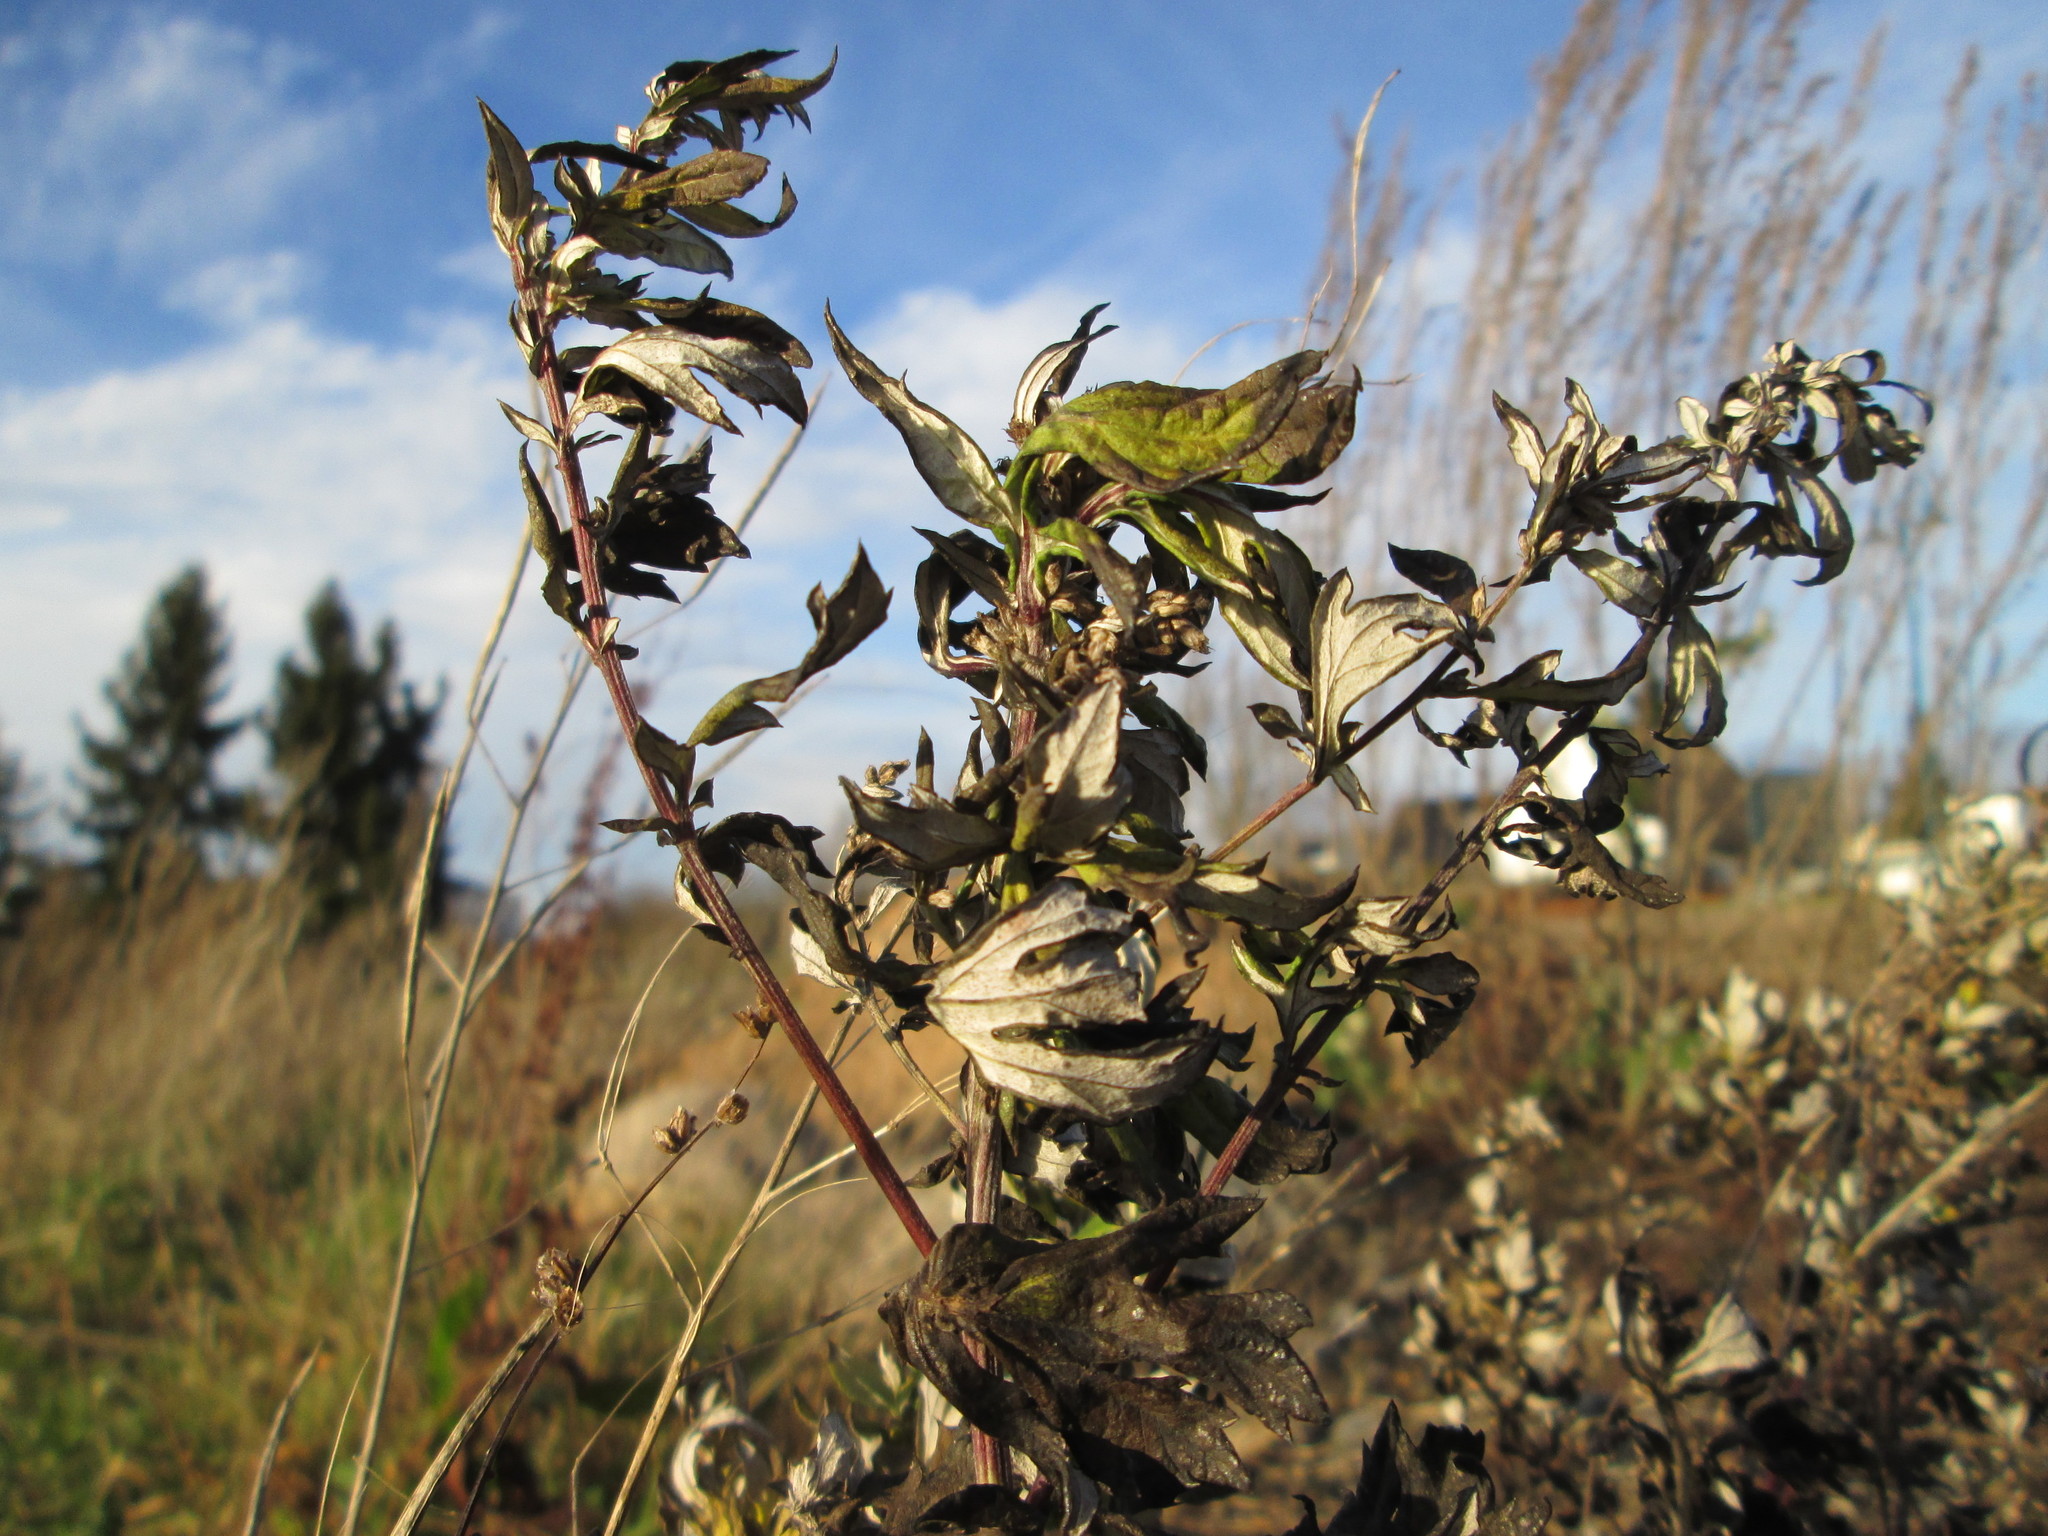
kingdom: Plantae
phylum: Tracheophyta
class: Magnoliopsida
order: Asterales
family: Asteraceae
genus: Artemisia
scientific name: Artemisia vulgaris
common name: Mugwort
